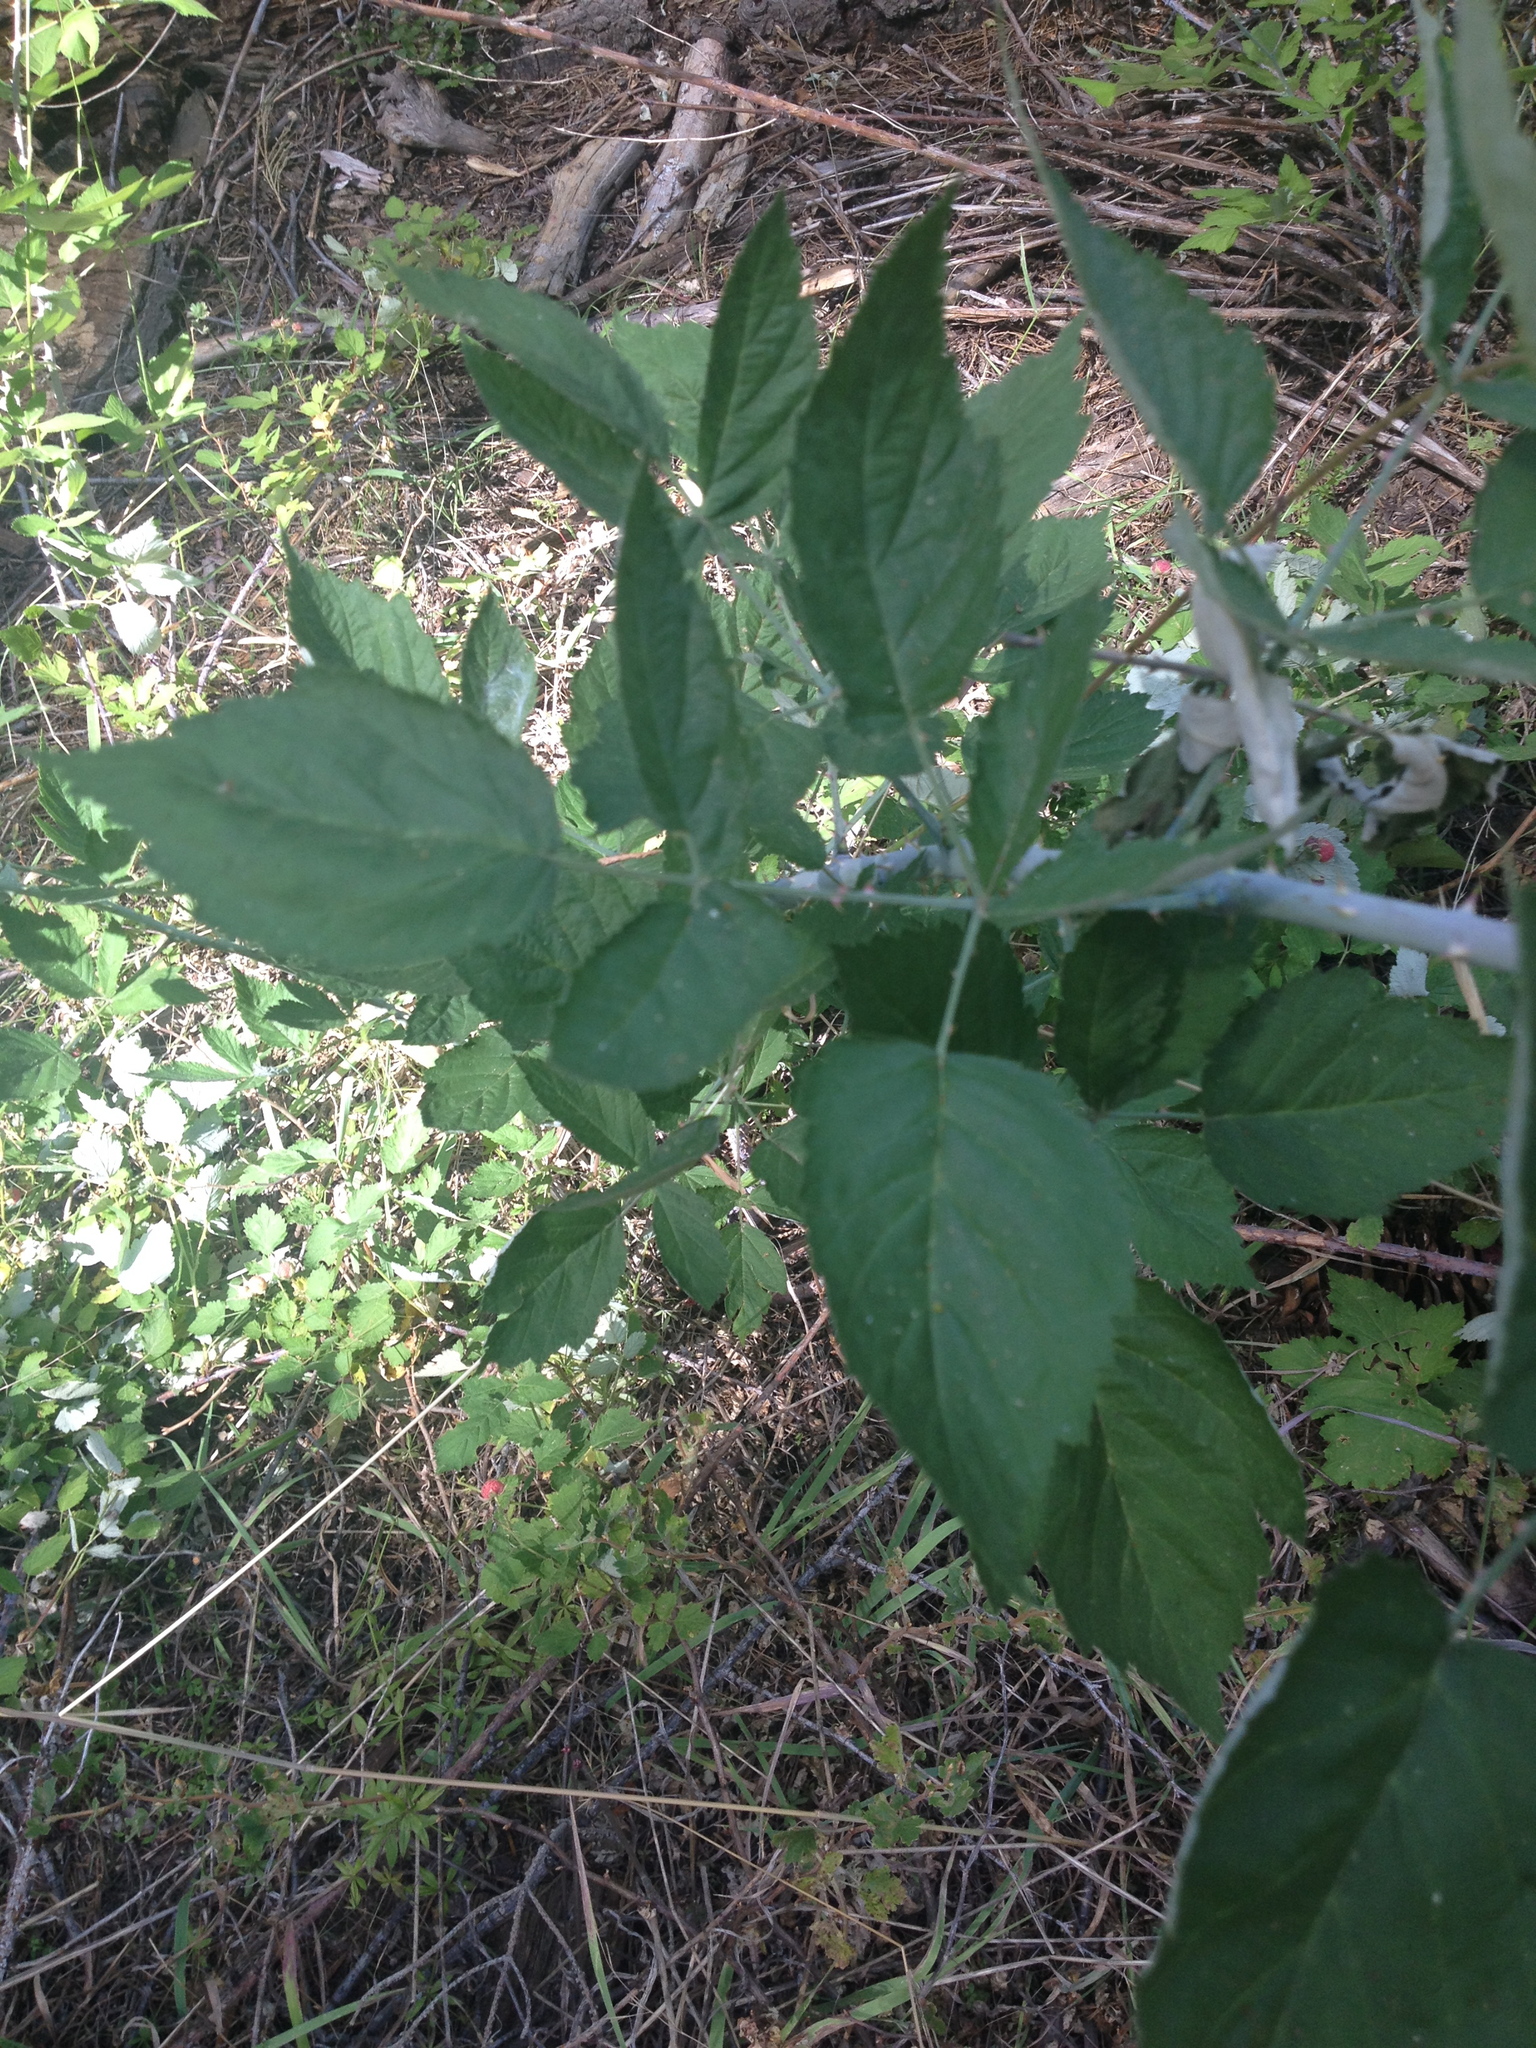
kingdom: Plantae
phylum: Tracheophyta
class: Magnoliopsida
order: Rosales
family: Rosaceae
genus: Rubus
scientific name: Rubus leucodermis
